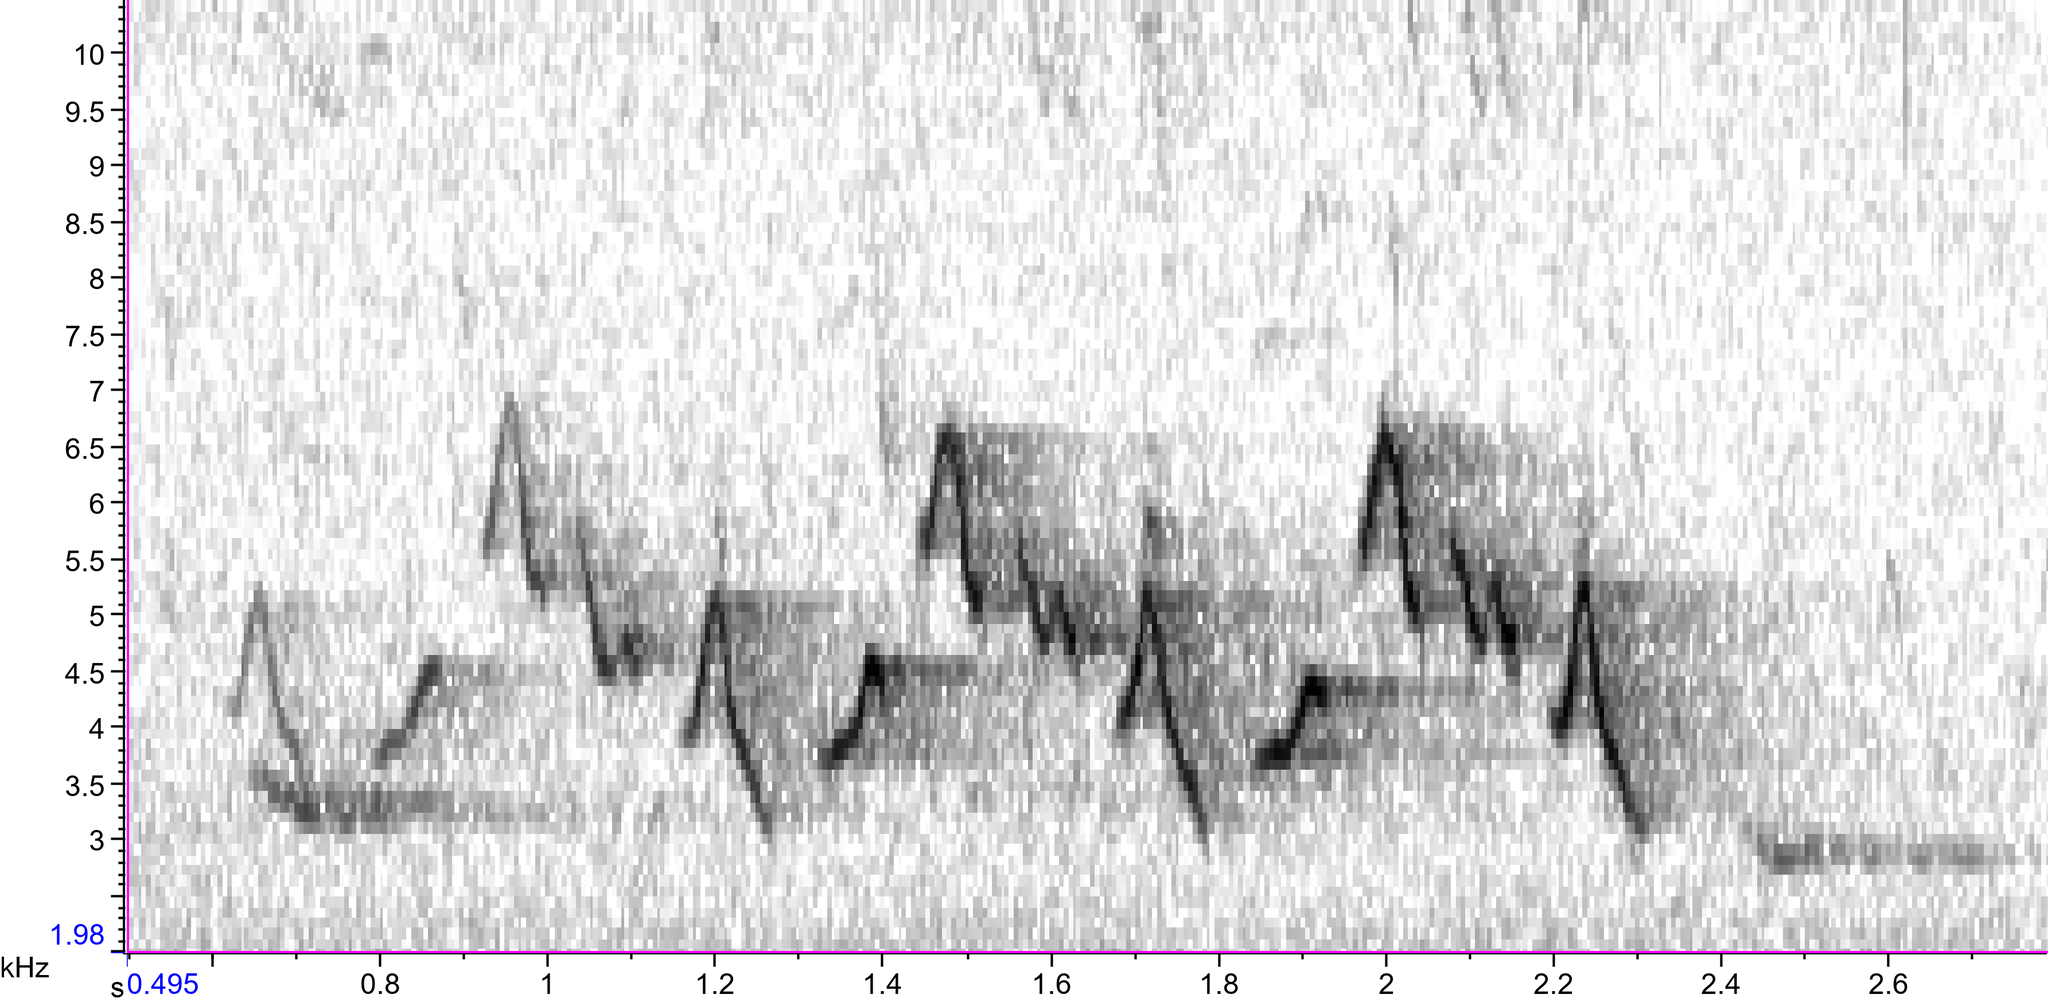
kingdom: Animalia
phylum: Chordata
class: Aves
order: Passeriformes
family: Parulidae
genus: Geothlypis
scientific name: Geothlypis trichas
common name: Common yellowthroat
